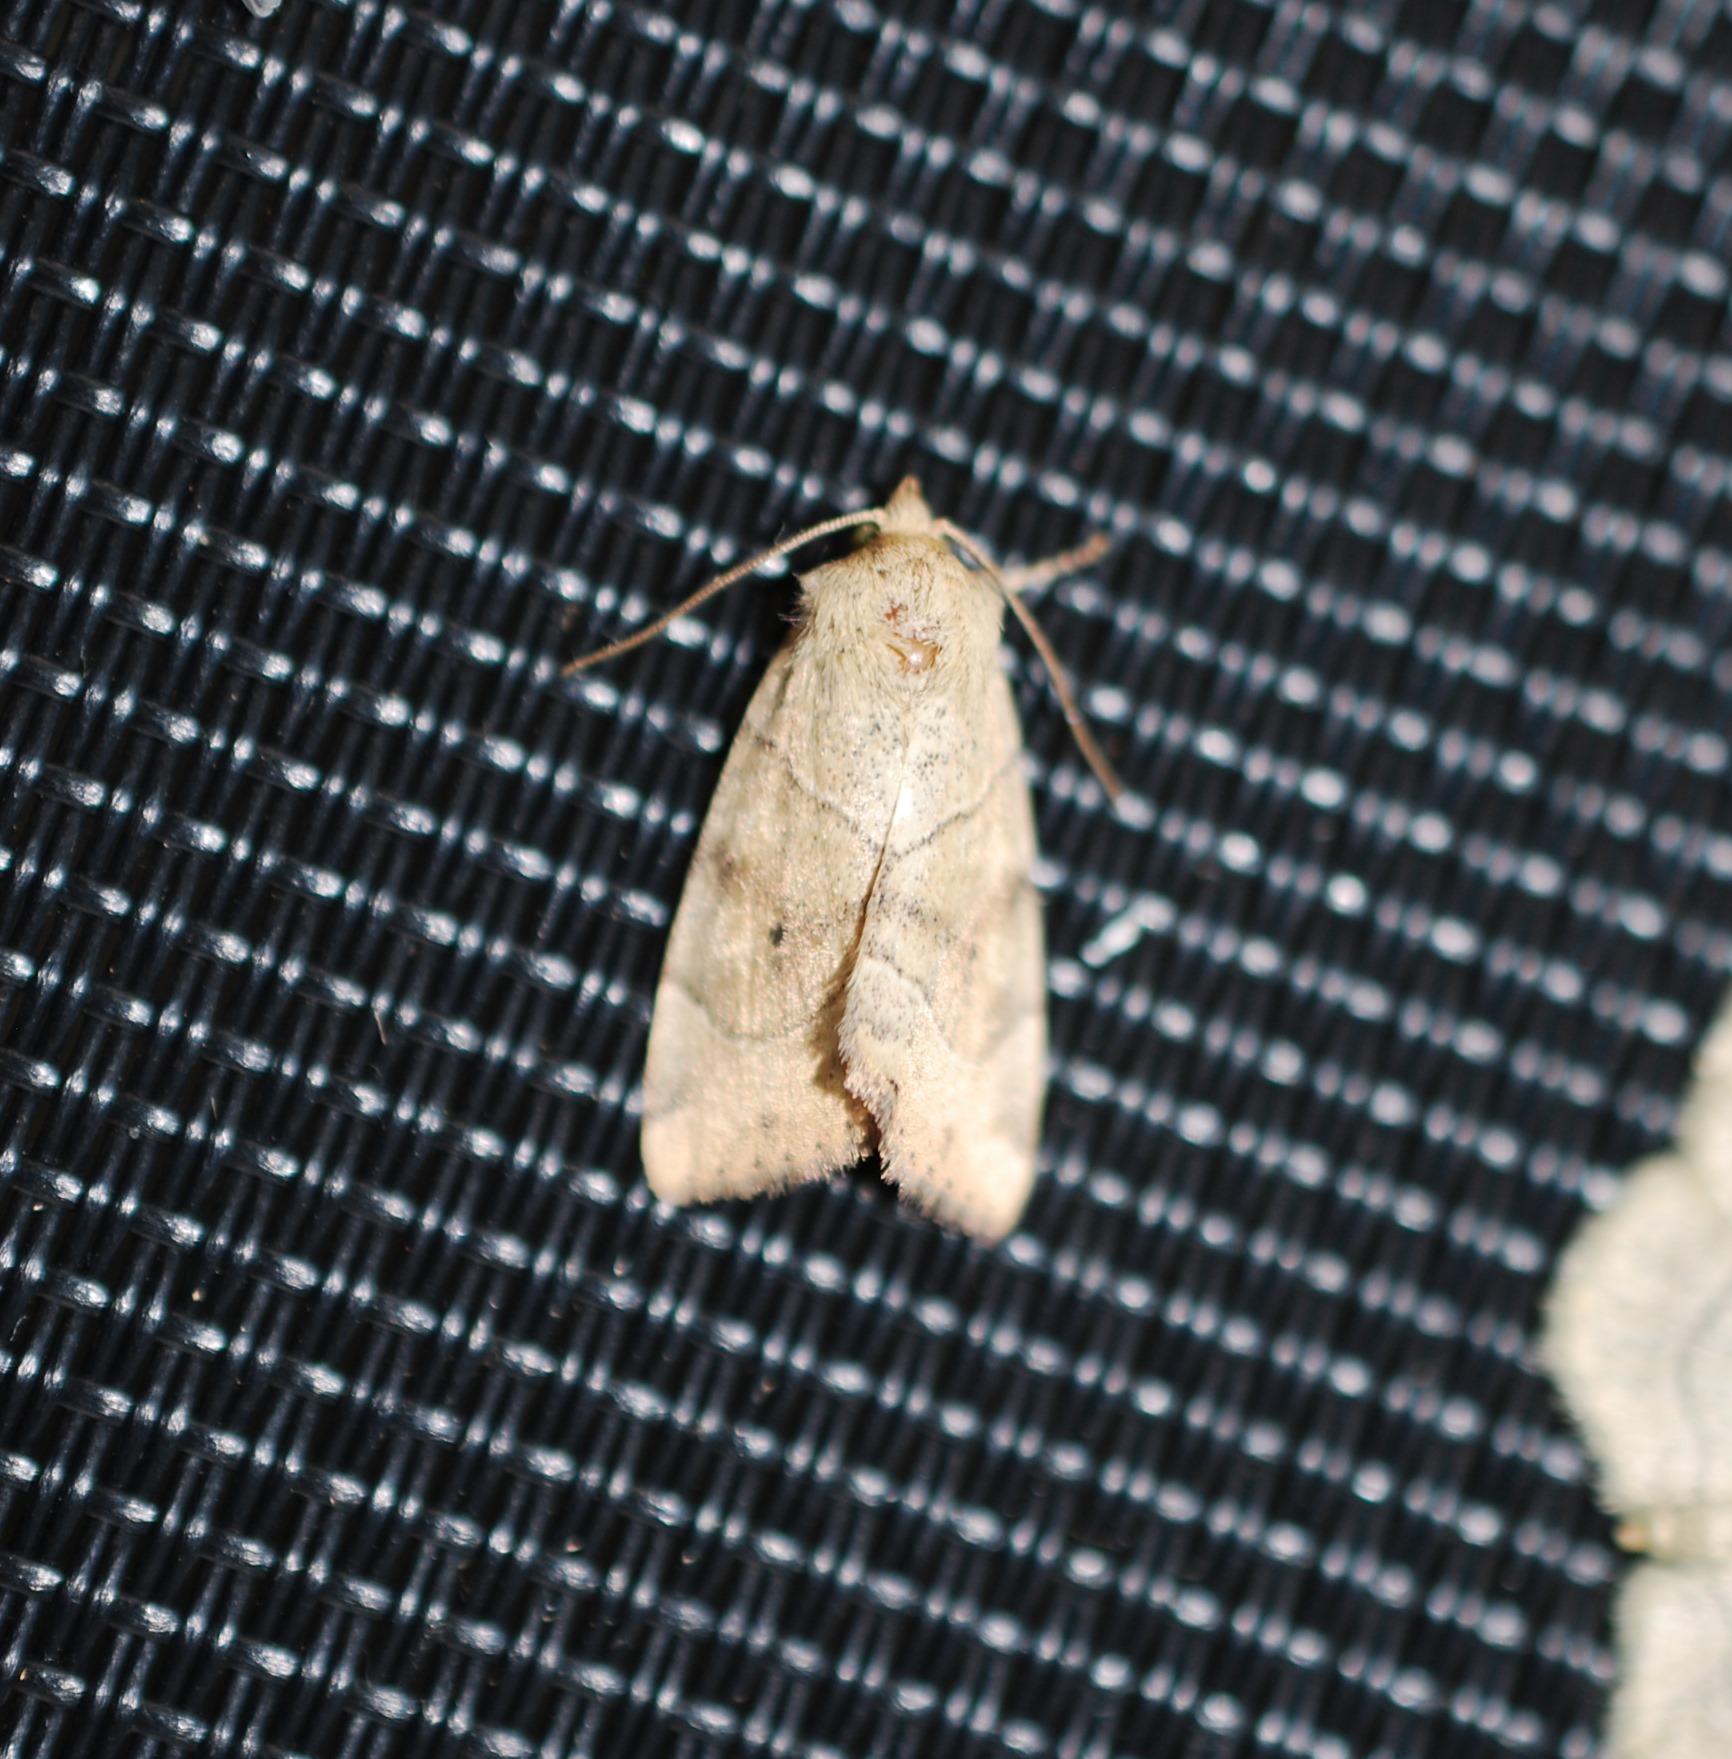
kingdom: Animalia
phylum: Arthropoda
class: Insecta
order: Lepidoptera
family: Noctuidae
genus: Cosmia
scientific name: Cosmia trapezina
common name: Dun-bar
